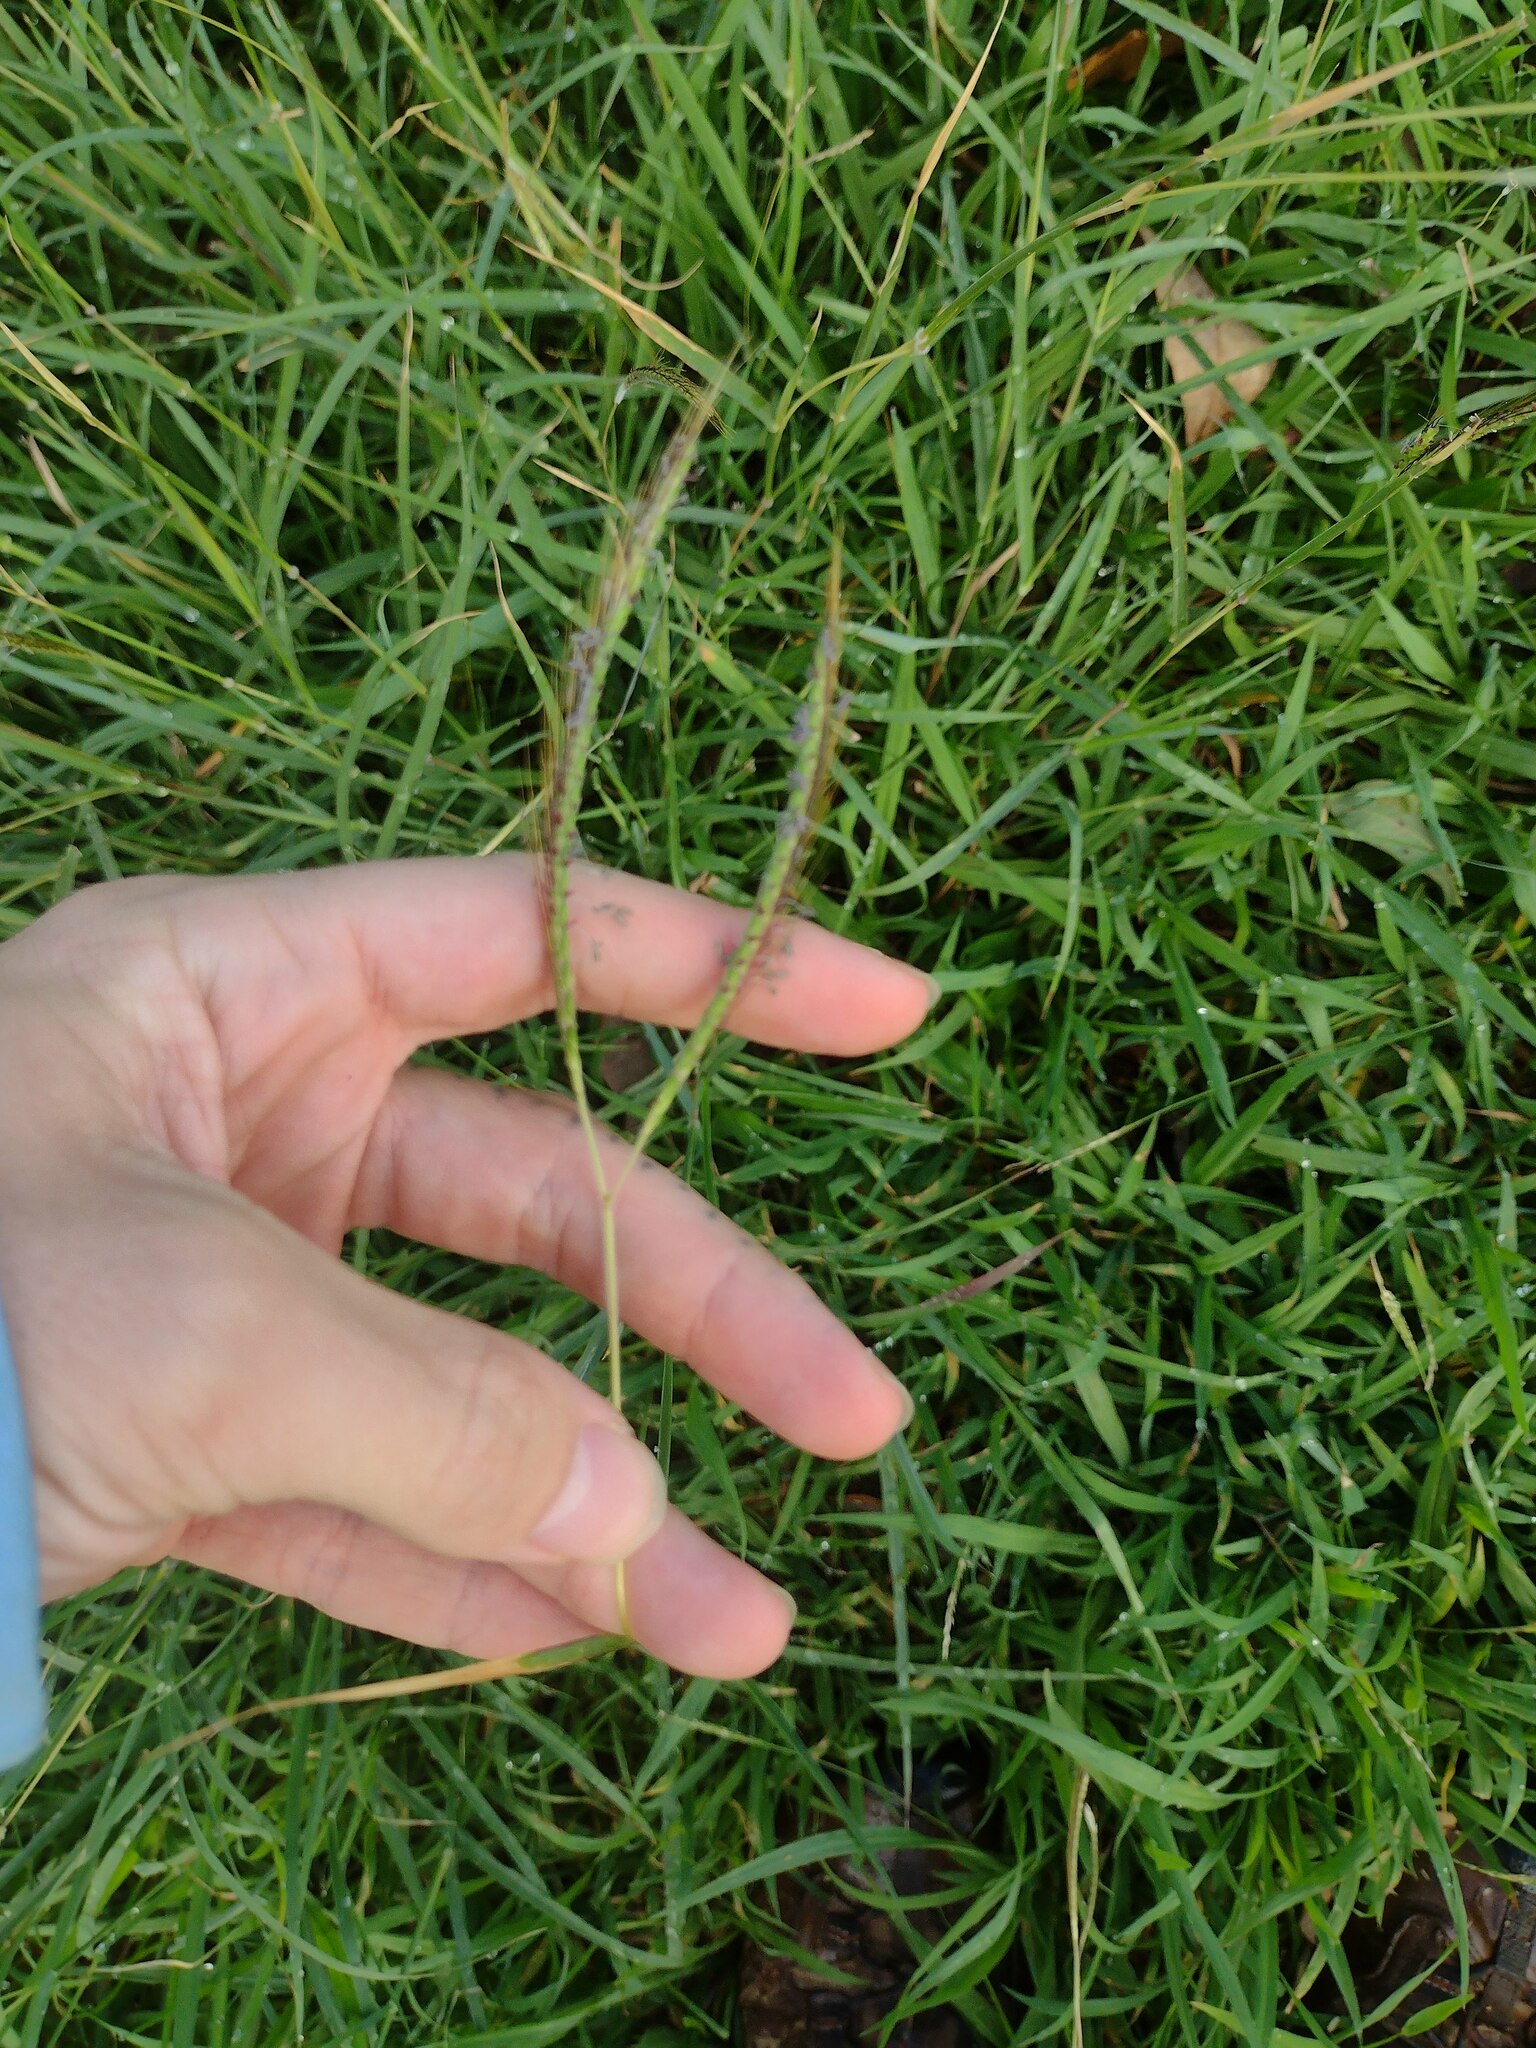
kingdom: Plantae
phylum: Tracheophyta
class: Liliopsida
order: Poales
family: Poaceae
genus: Dichanthium
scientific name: Dichanthium aristatum
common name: Angleton bluestem
